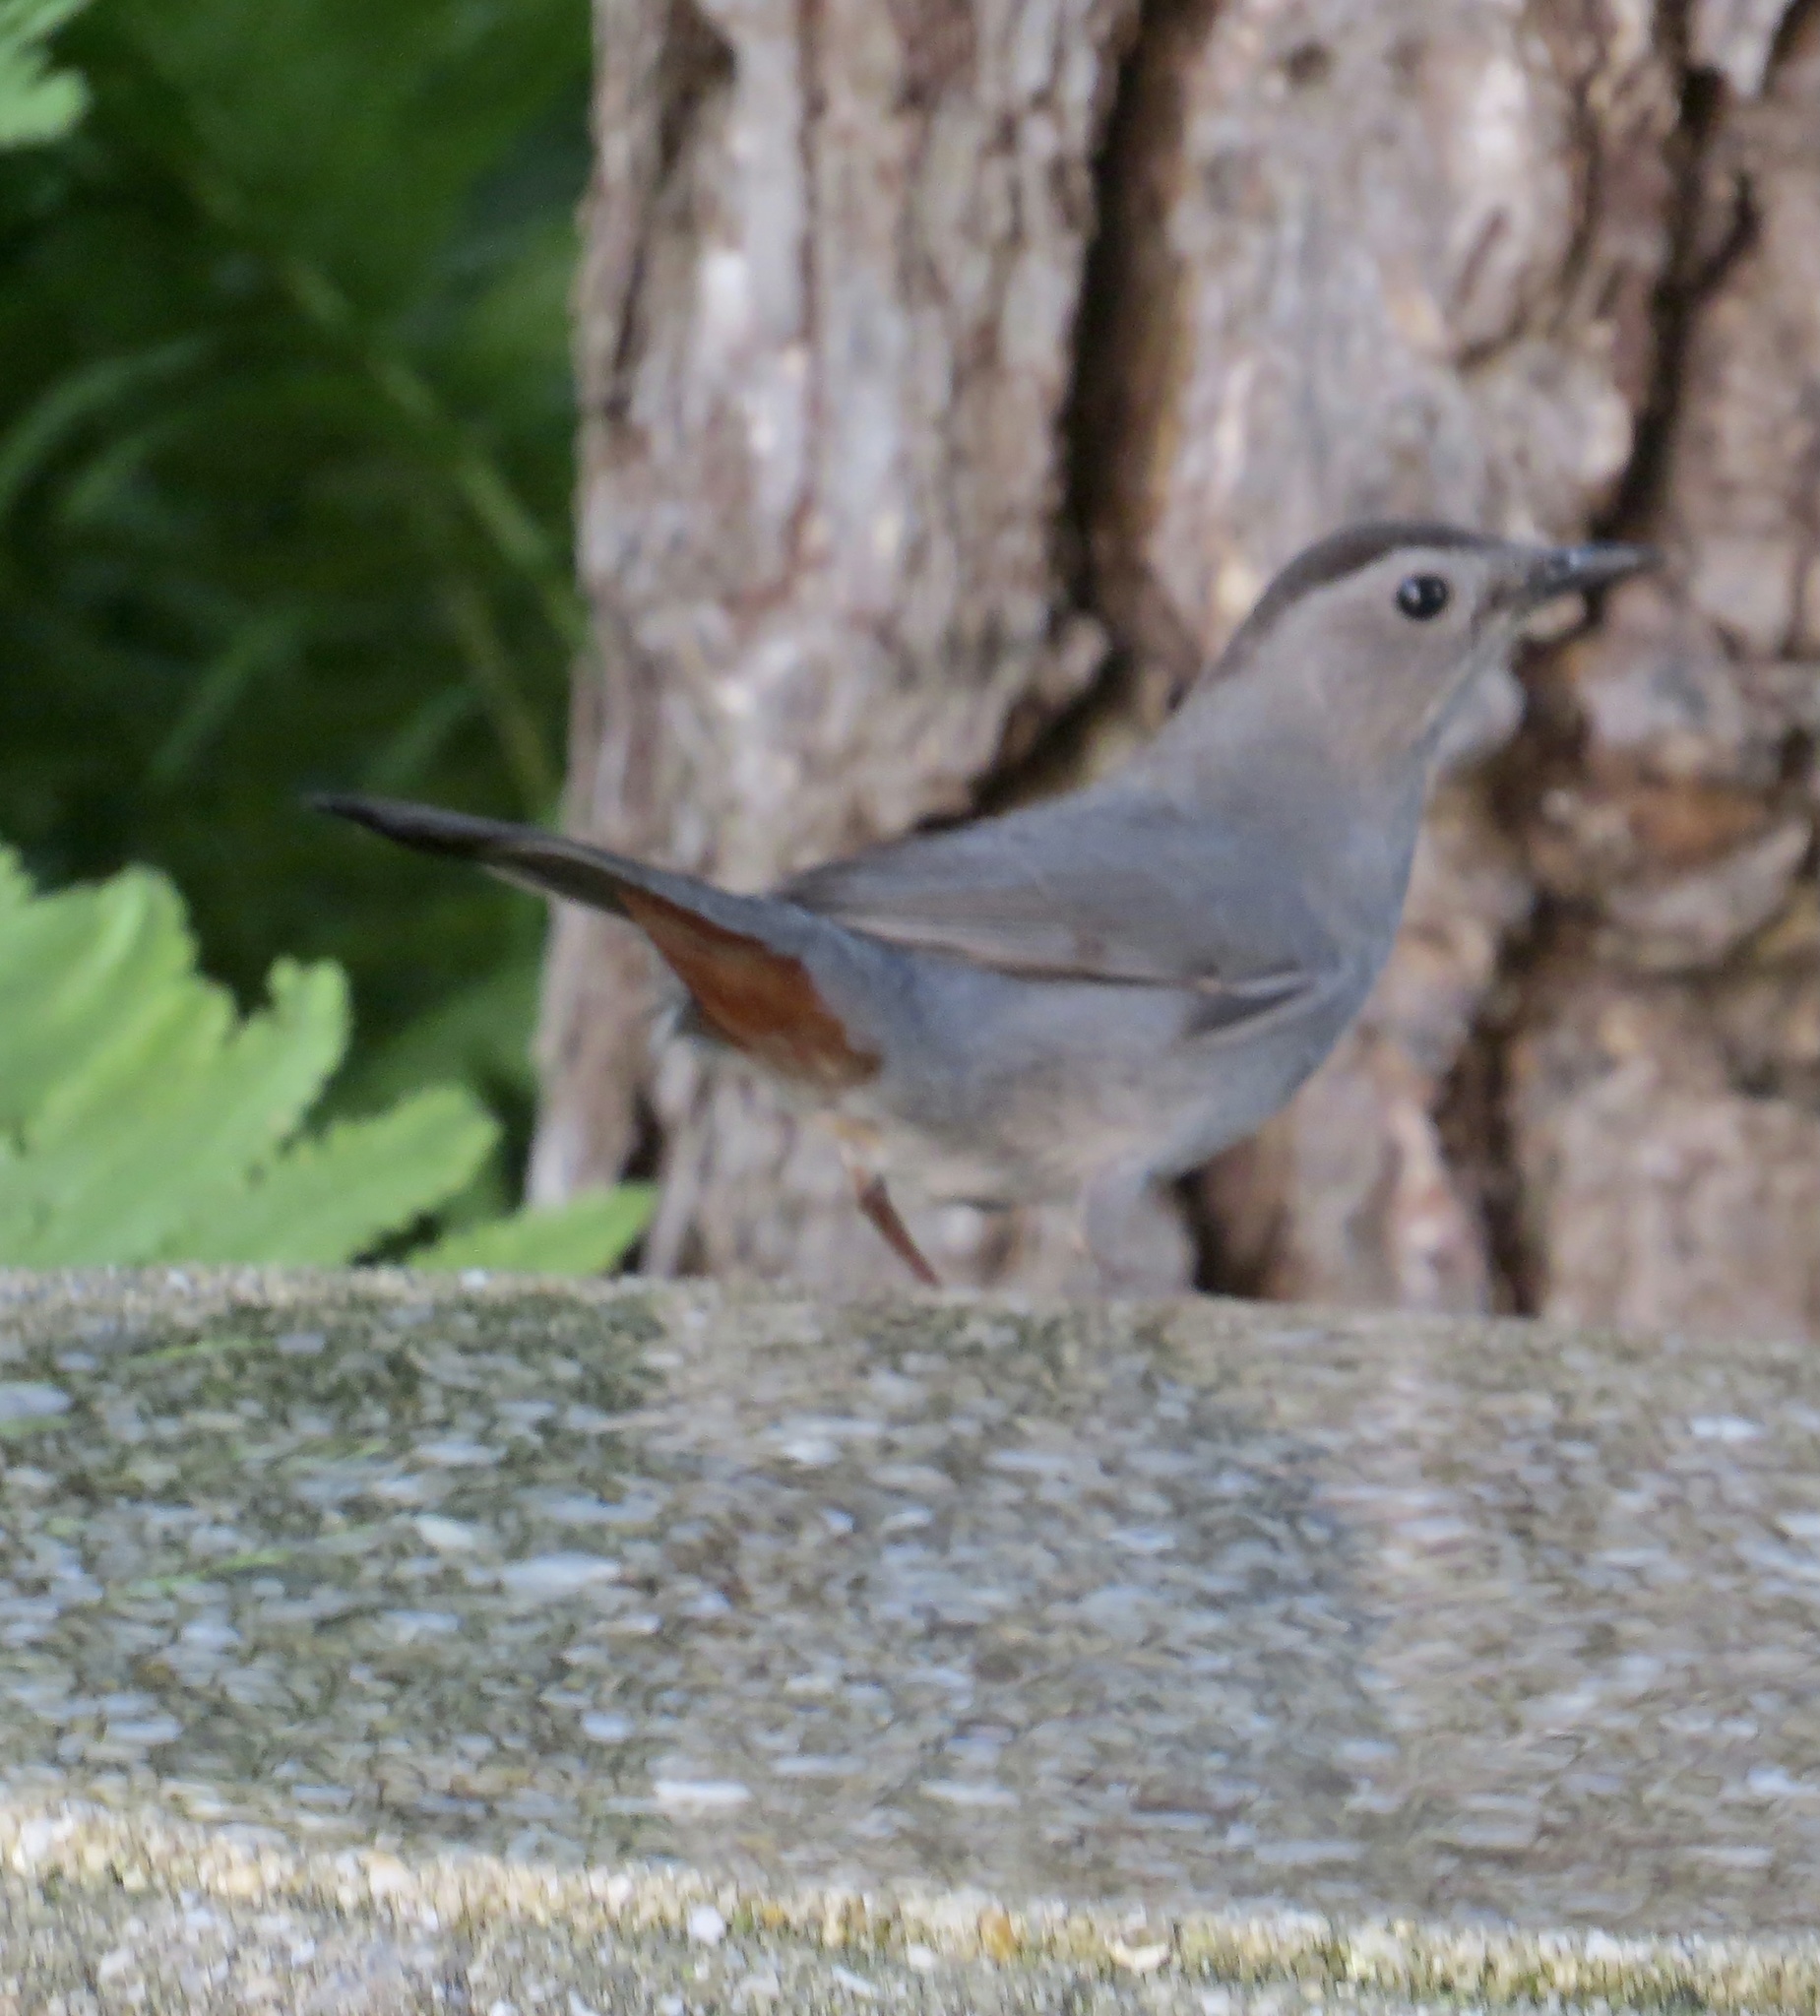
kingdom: Animalia
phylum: Chordata
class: Aves
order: Passeriformes
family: Mimidae
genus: Dumetella
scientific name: Dumetella carolinensis
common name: Gray catbird
